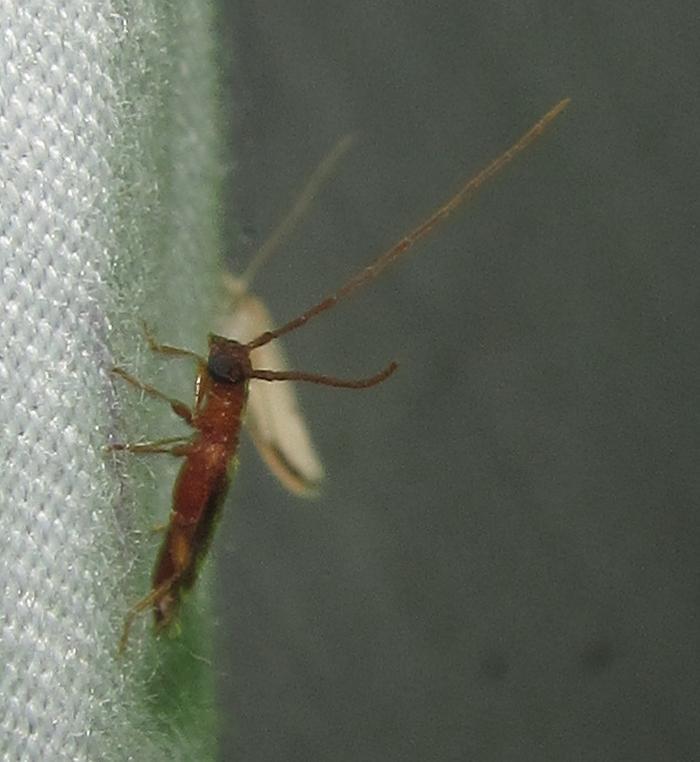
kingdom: Animalia
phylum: Arthropoda
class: Insecta
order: Coleoptera
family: Cerambycidae
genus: Oculobrium
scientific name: Oculobrium abbreviatum
